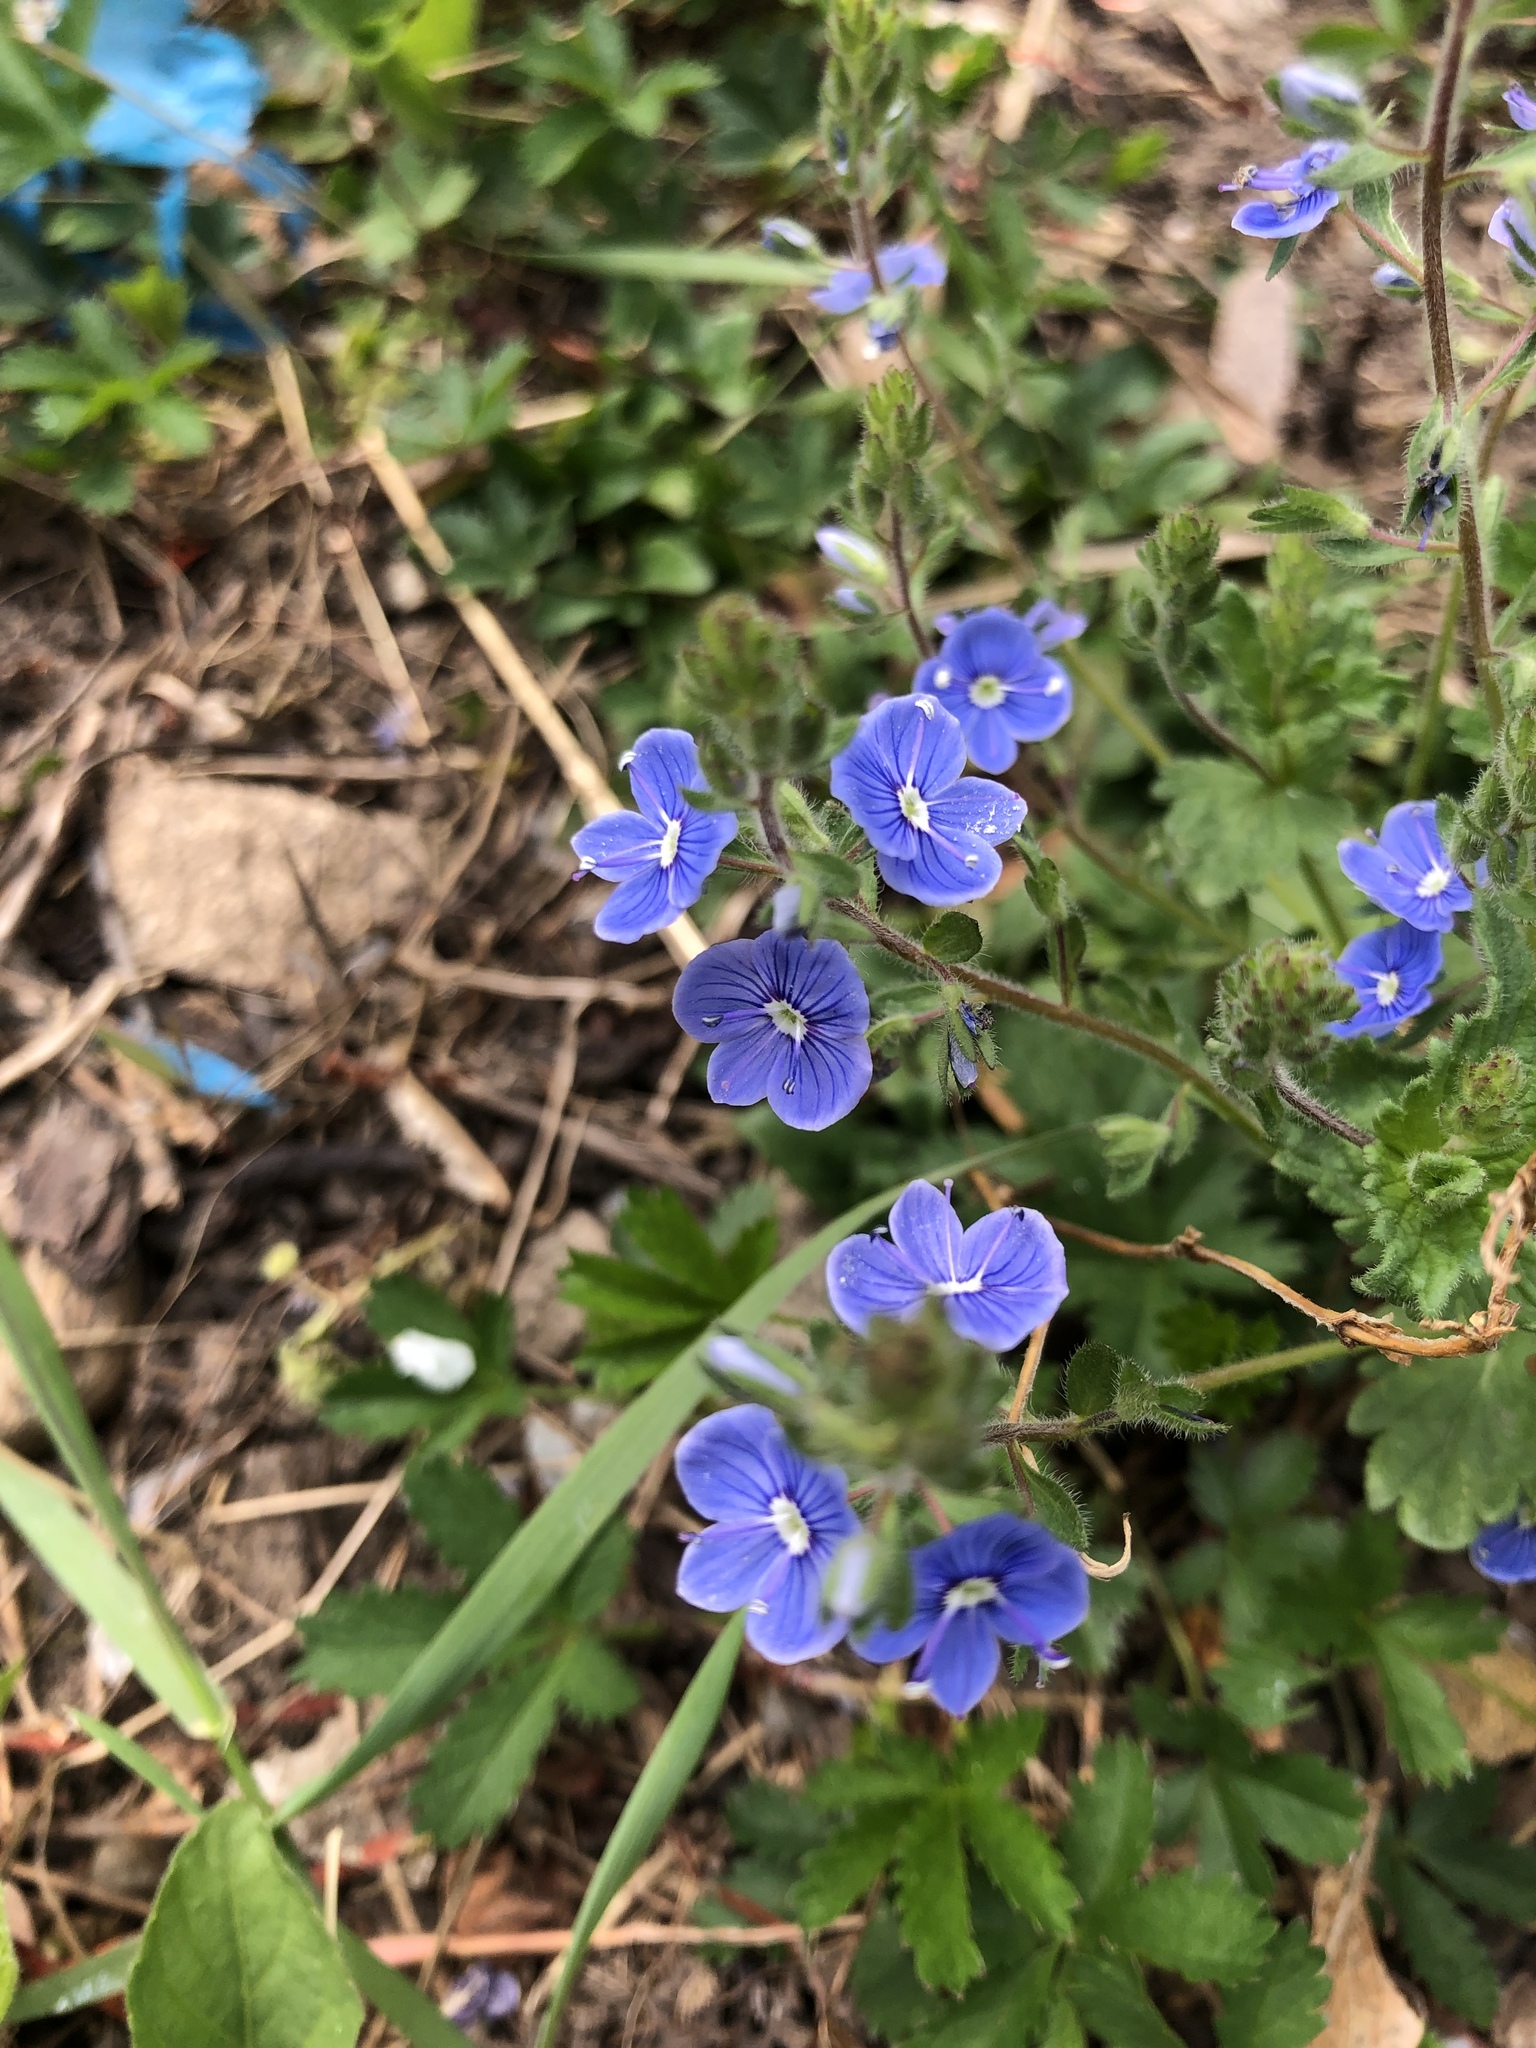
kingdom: Plantae
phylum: Tracheophyta
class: Magnoliopsida
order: Lamiales
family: Plantaginaceae
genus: Veronica
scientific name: Veronica chamaedrys
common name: Germander speedwell
